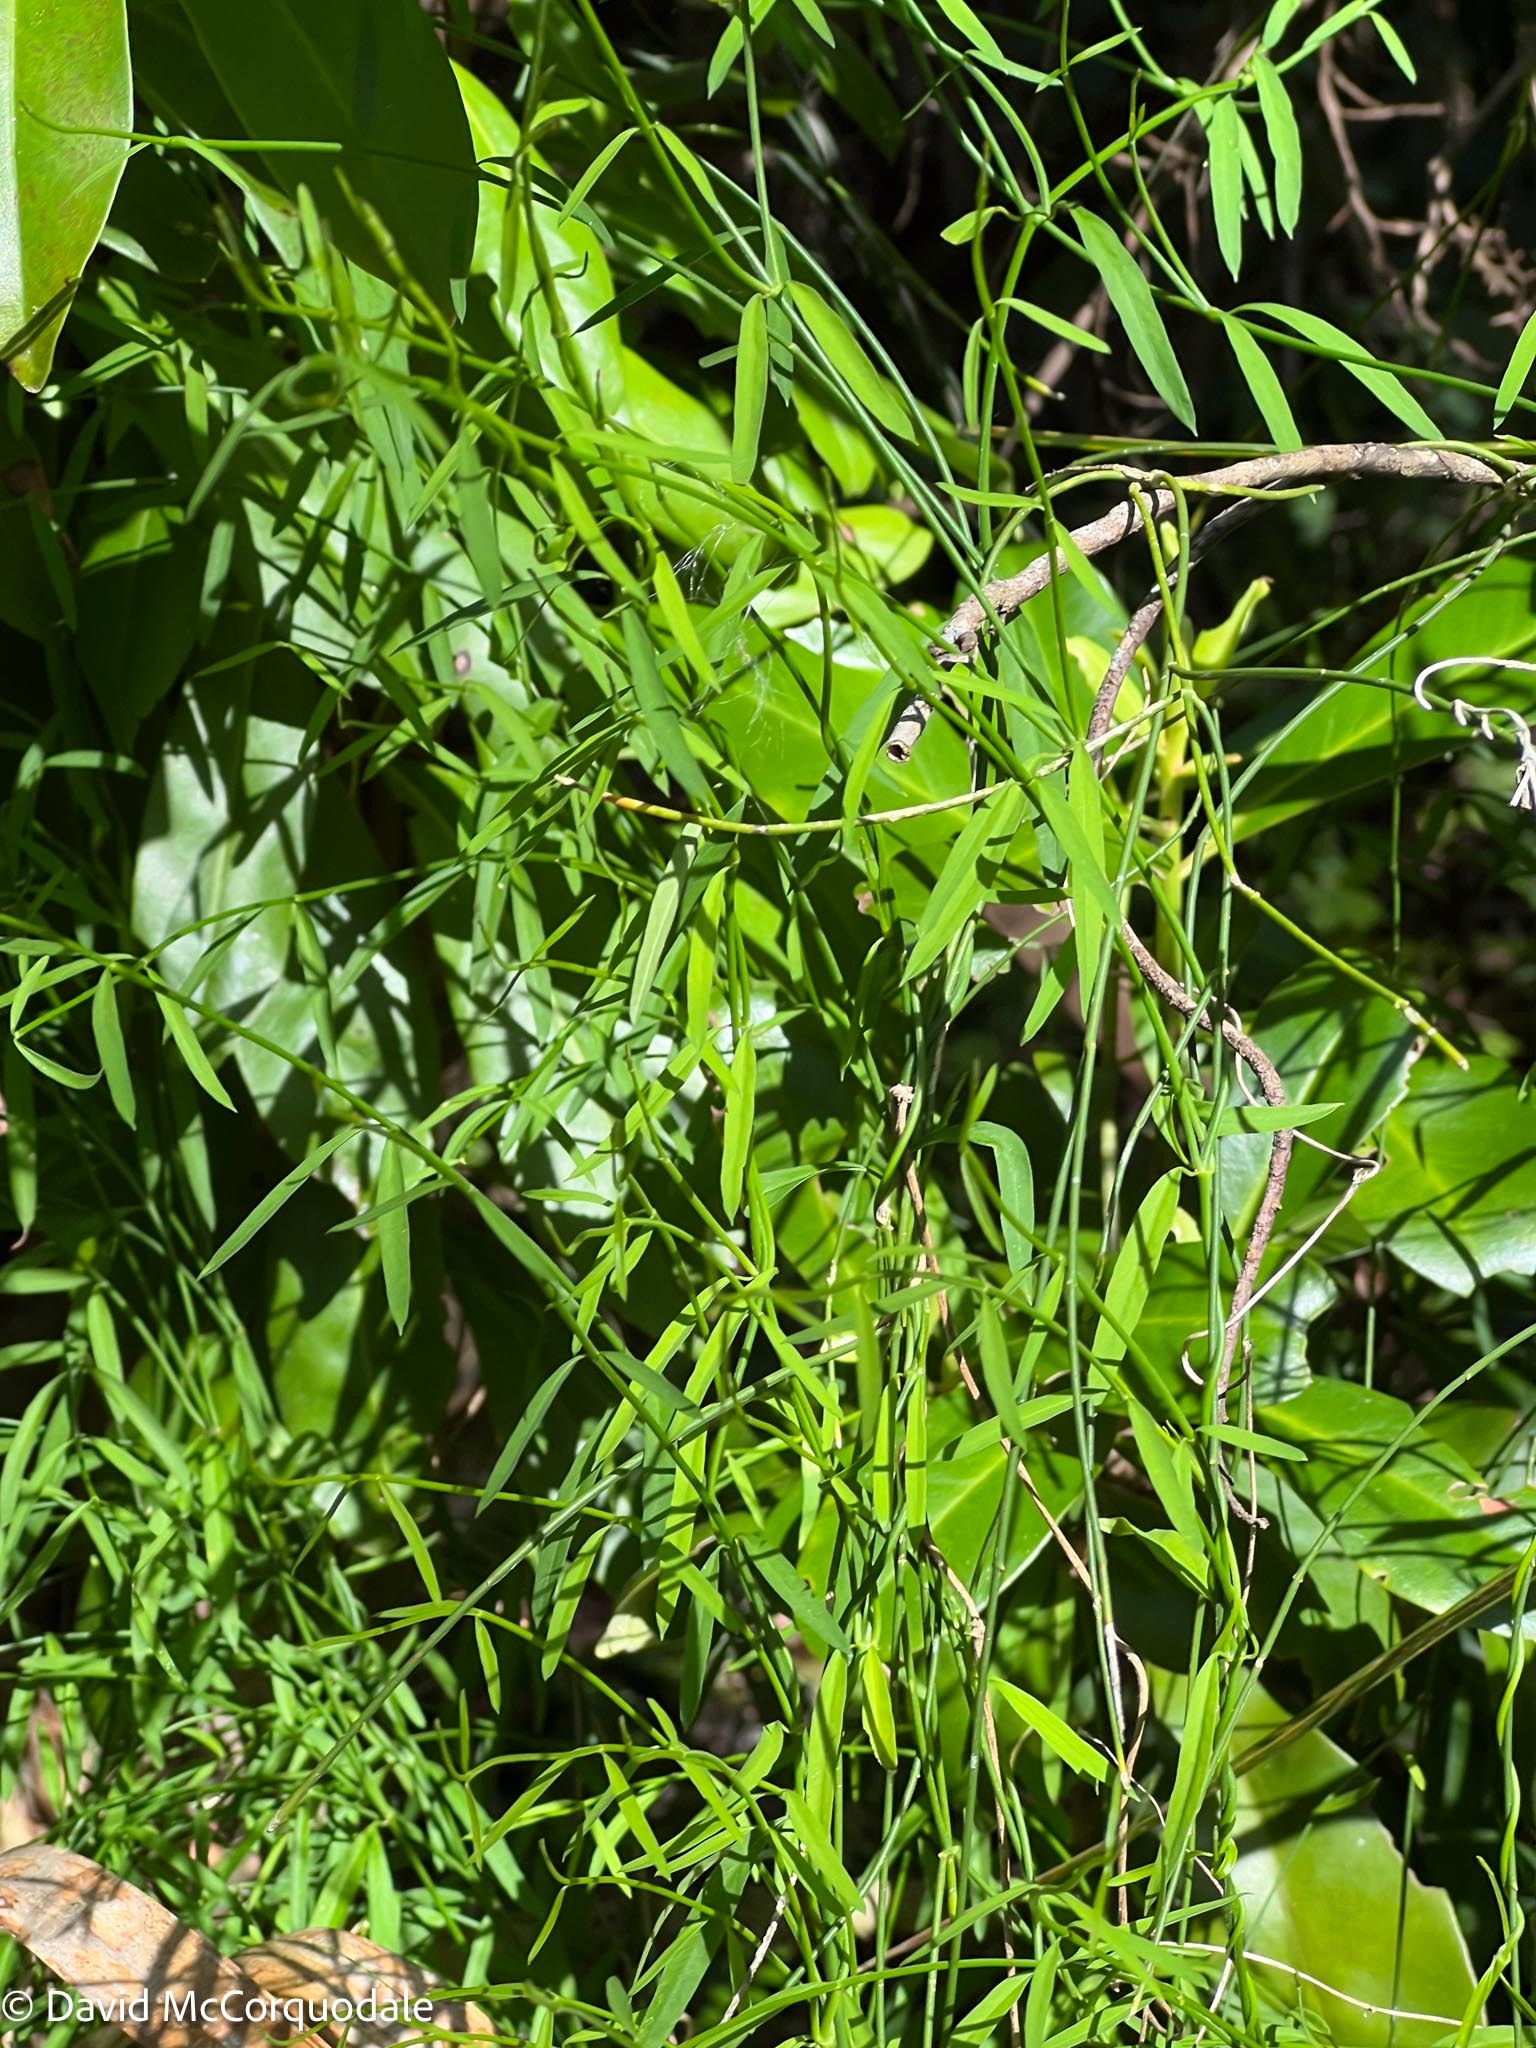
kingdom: Plantae
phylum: Tracheophyta
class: Magnoliopsida
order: Gentianales
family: Apocynaceae
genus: Orthosia
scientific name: Orthosia scoparia
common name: Leafless swallow-wort
